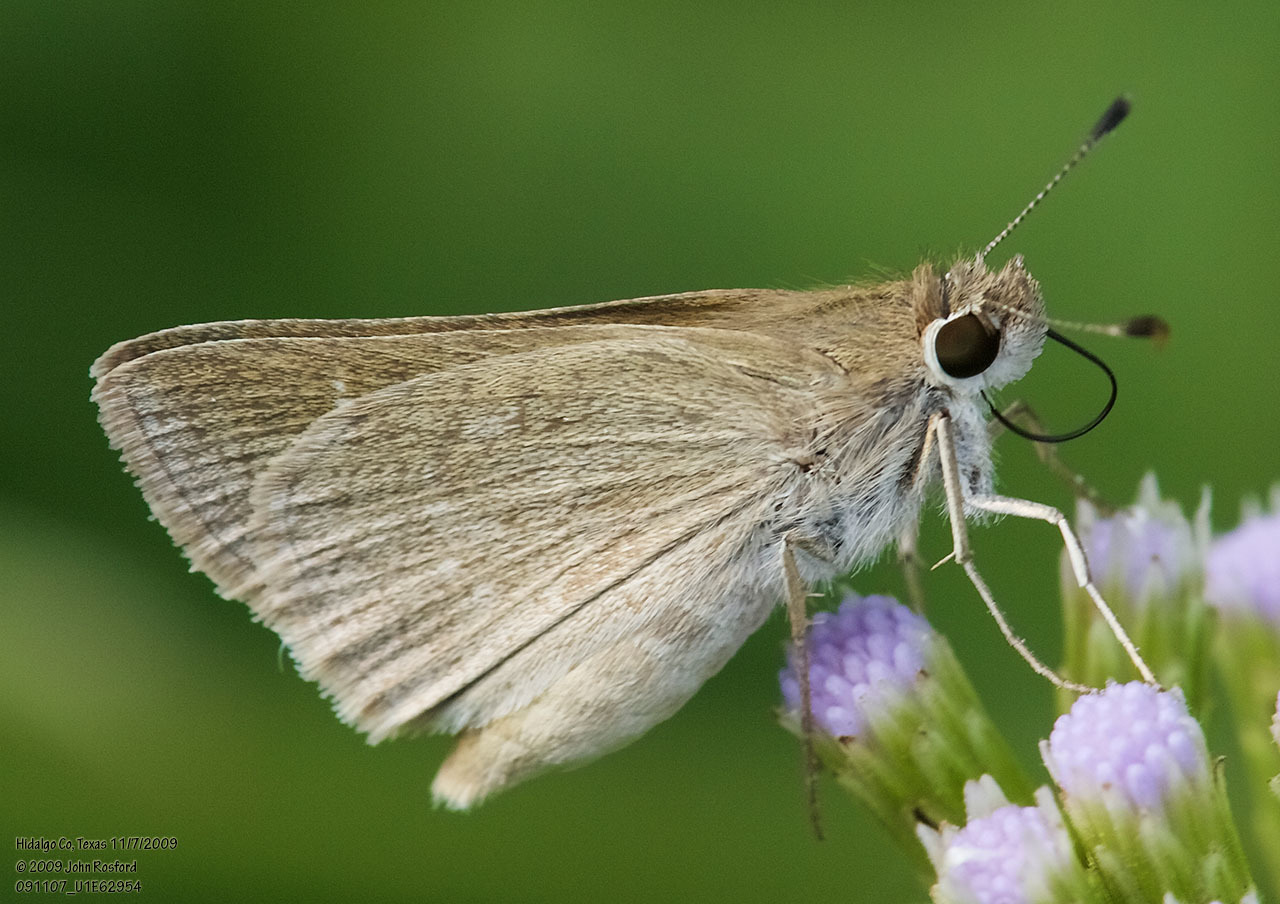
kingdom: Animalia
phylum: Arthropoda
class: Insecta
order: Lepidoptera
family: Hesperiidae
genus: Lerodea
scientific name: Lerodea eufala
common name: Eufala skipper
